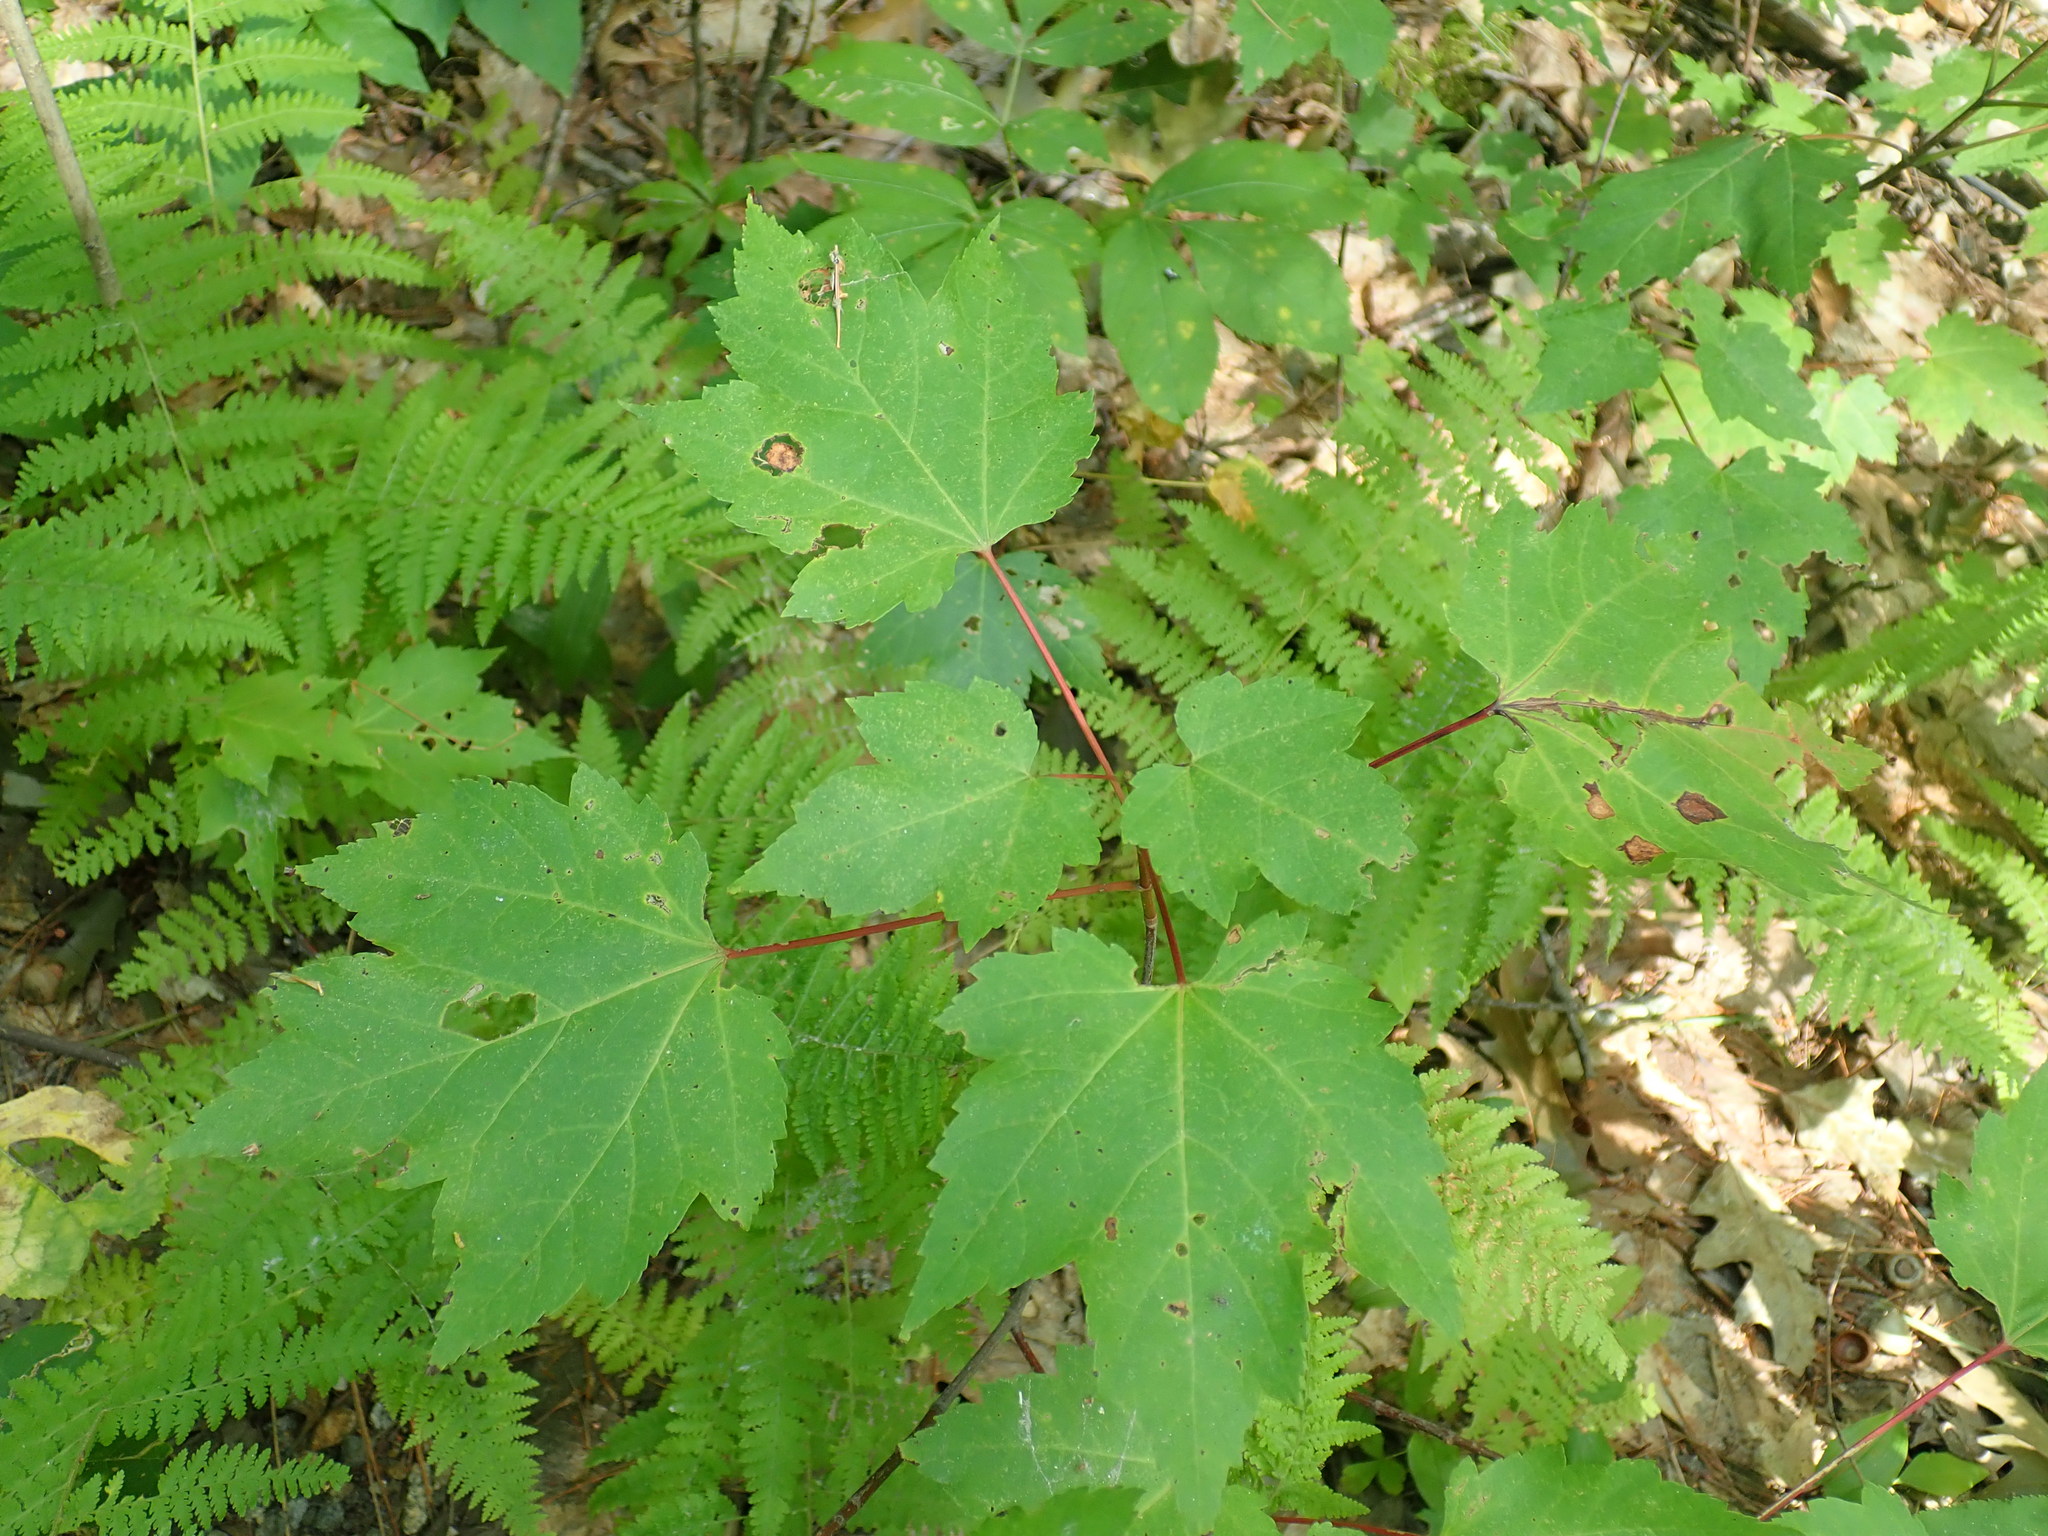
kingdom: Plantae
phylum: Tracheophyta
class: Magnoliopsida
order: Sapindales
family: Sapindaceae
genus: Acer
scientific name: Acer rubrum
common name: Red maple
